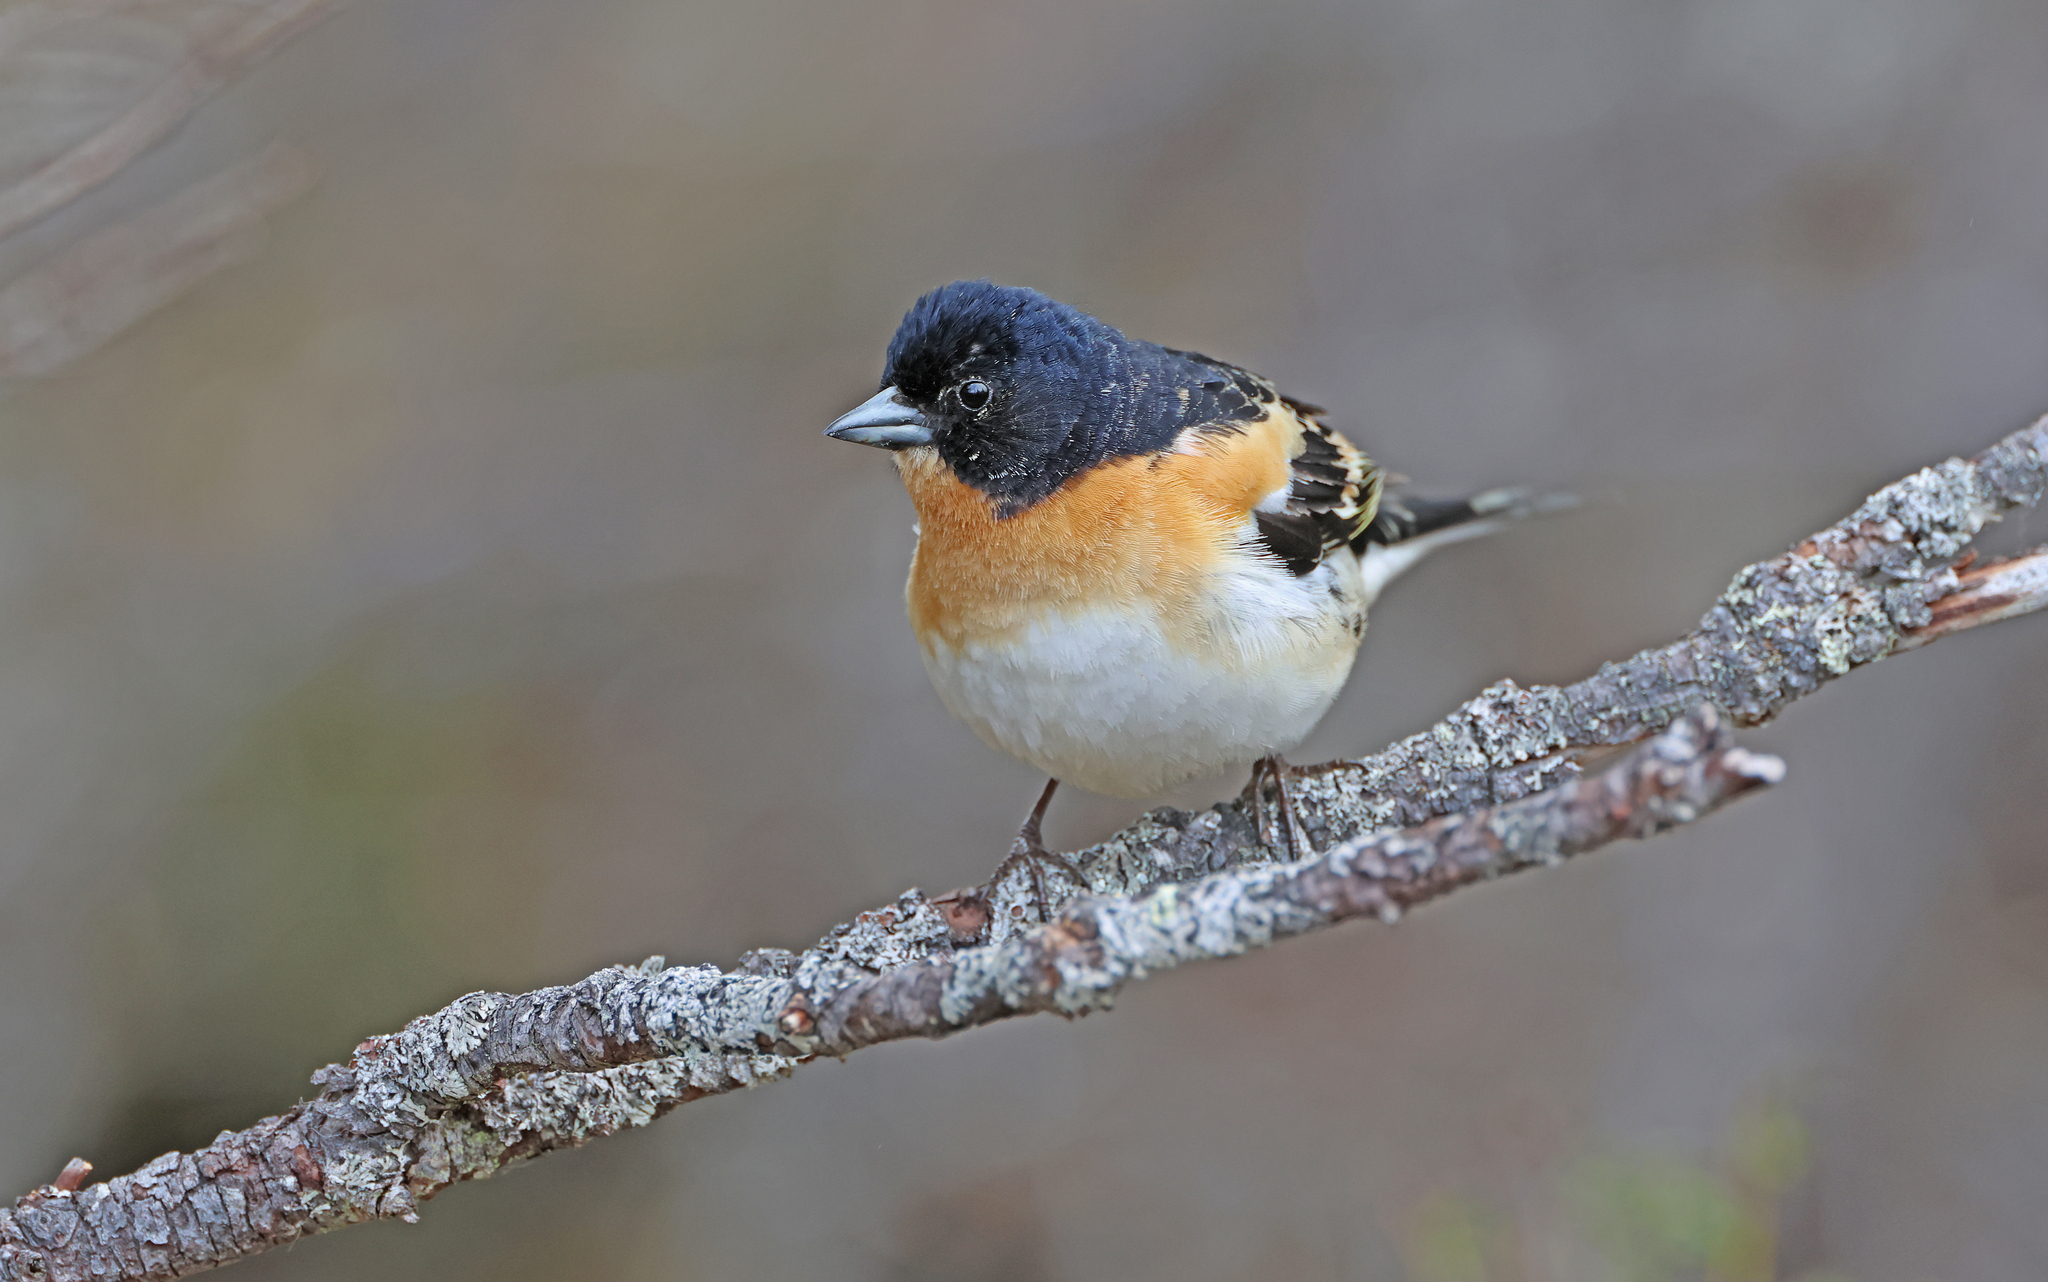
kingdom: Animalia
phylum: Chordata
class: Aves
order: Passeriformes
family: Fringillidae
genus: Fringilla
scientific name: Fringilla montifringilla
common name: Brambling
